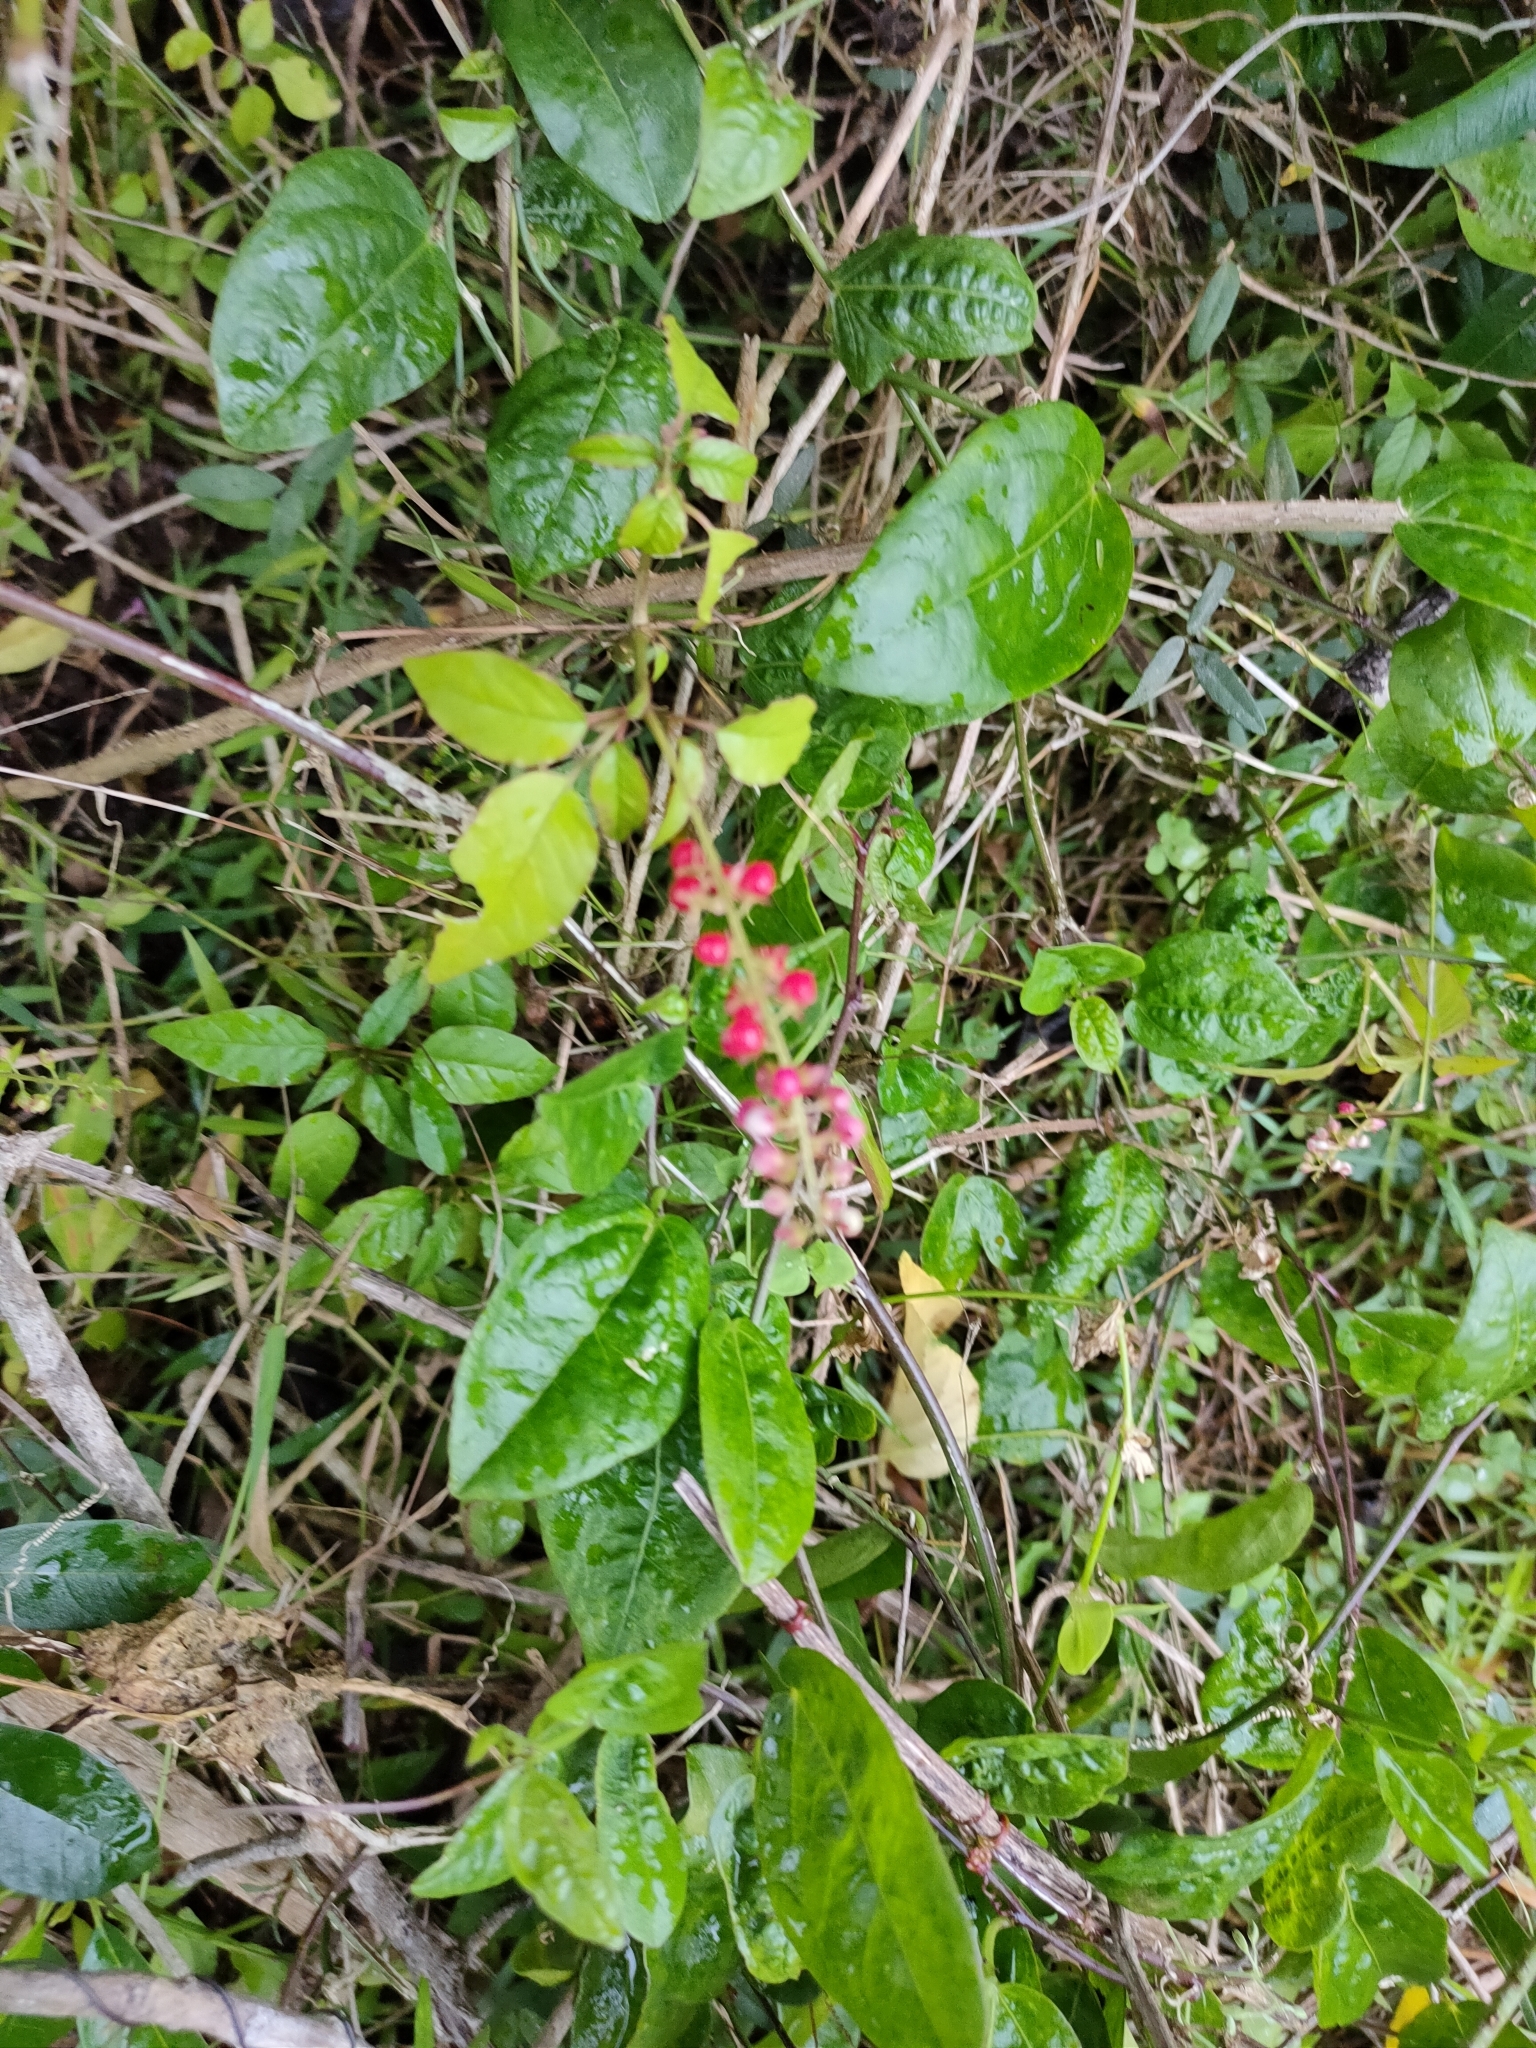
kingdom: Plantae
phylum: Tracheophyta
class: Magnoliopsida
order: Caryophyllales
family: Phytolaccaceae
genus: Rivina
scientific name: Rivina humilis
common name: Rougeplant
